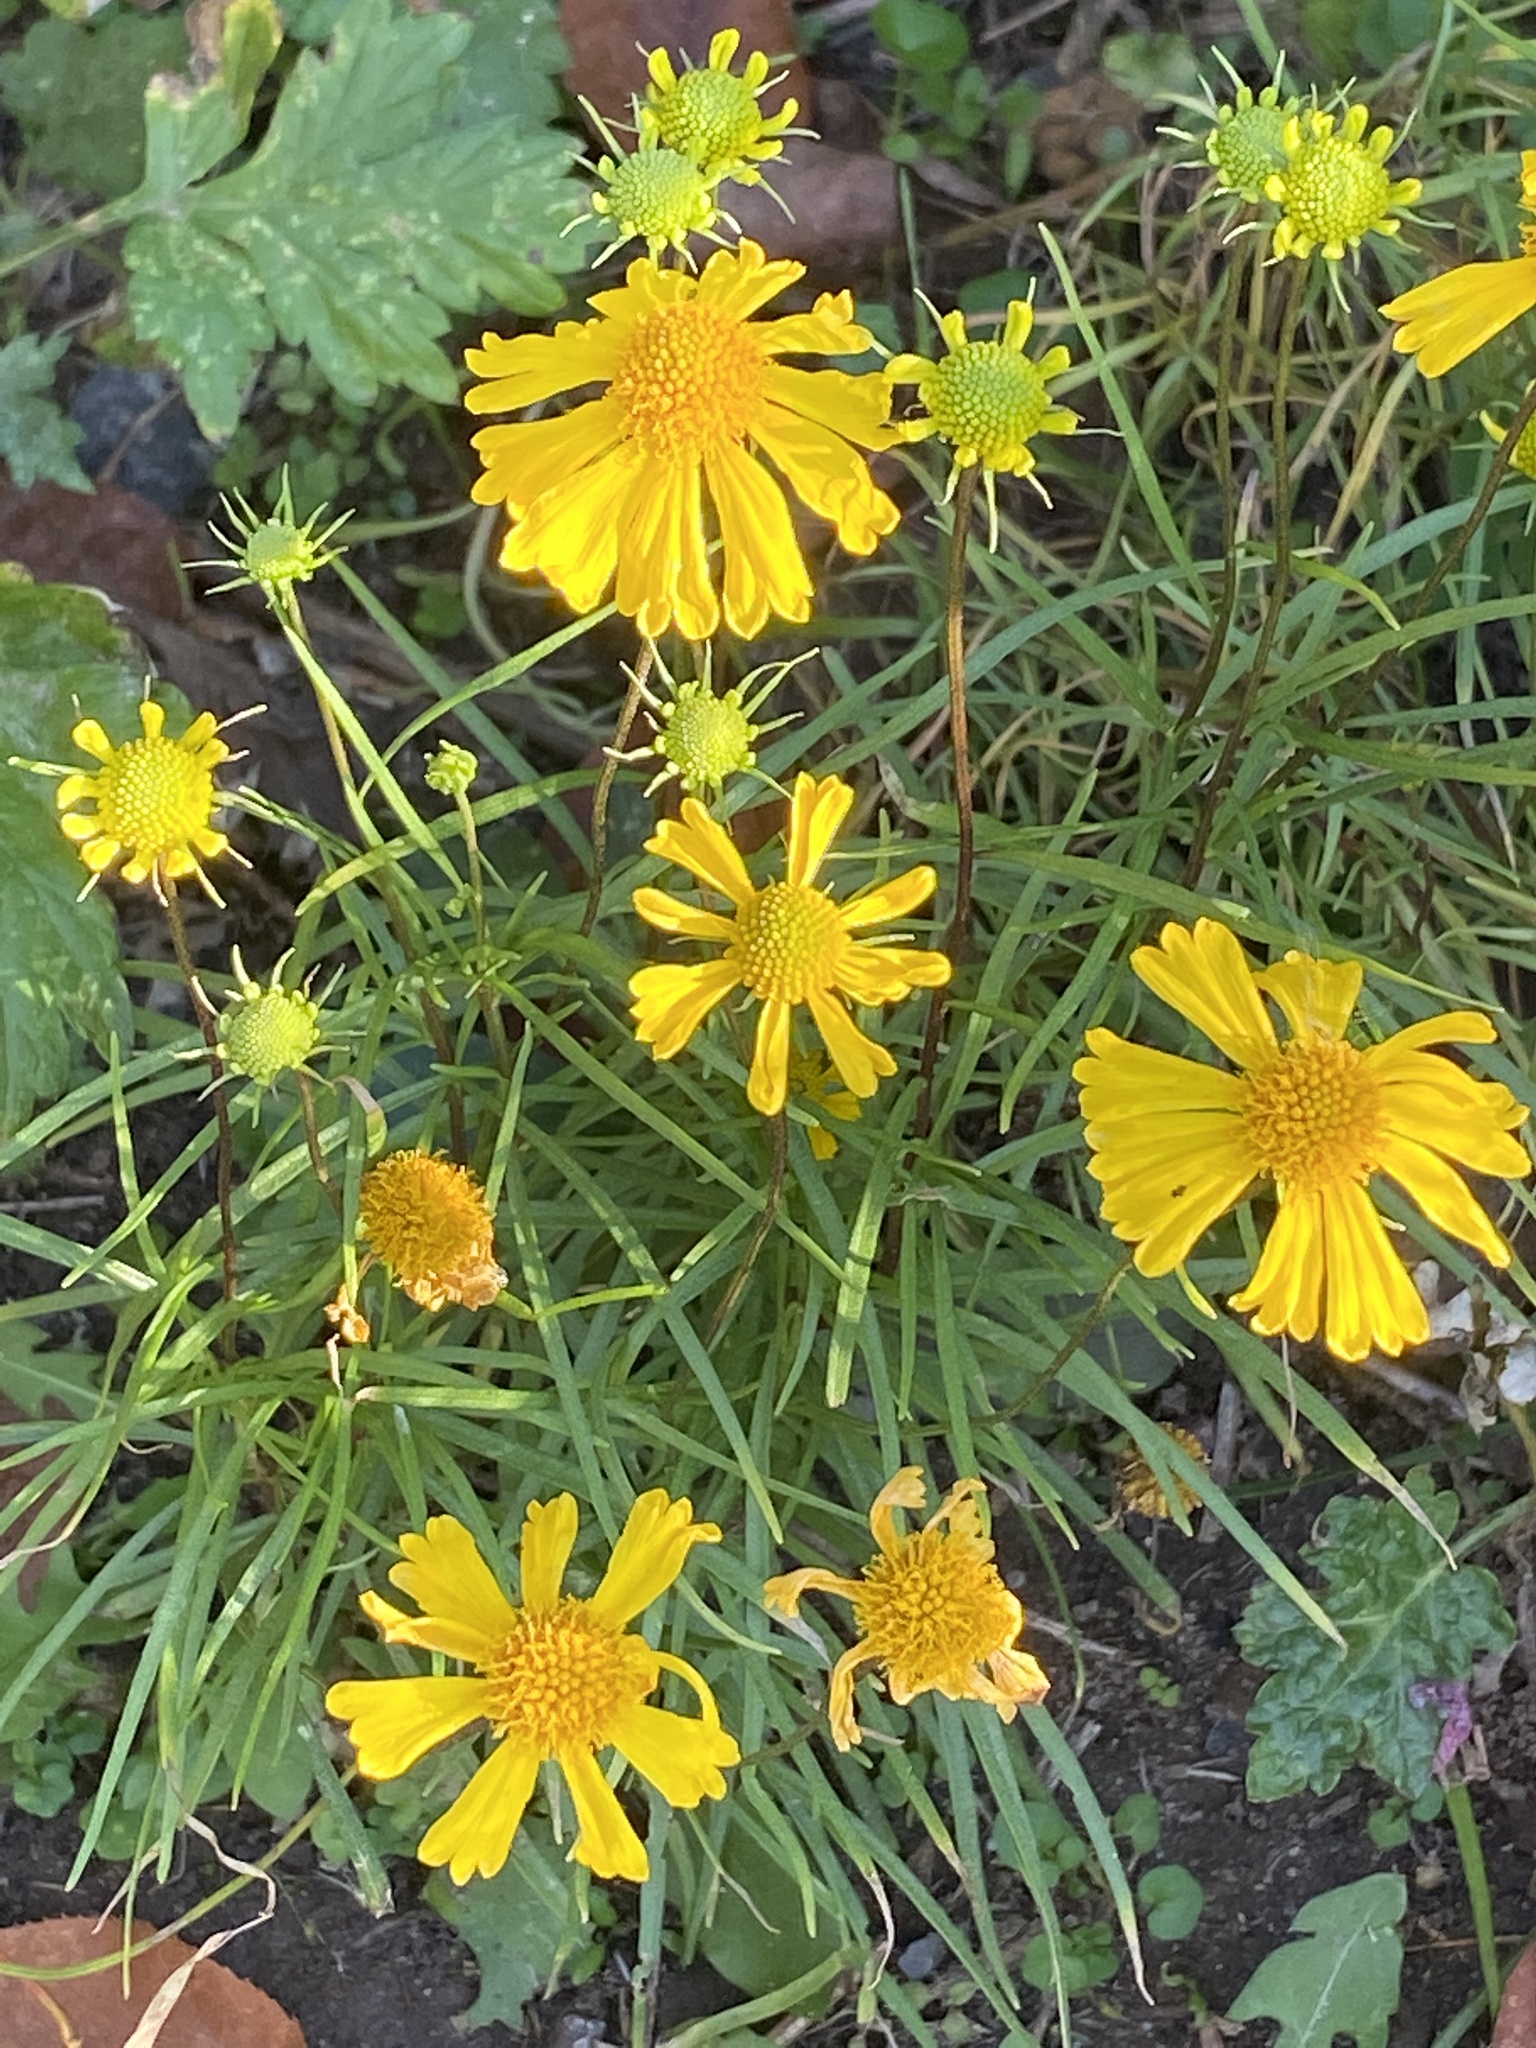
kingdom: Plantae
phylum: Tracheophyta
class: Magnoliopsida
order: Asterales
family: Asteraceae
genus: Helenium
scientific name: Helenium autumnale
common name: Sneezeweed
